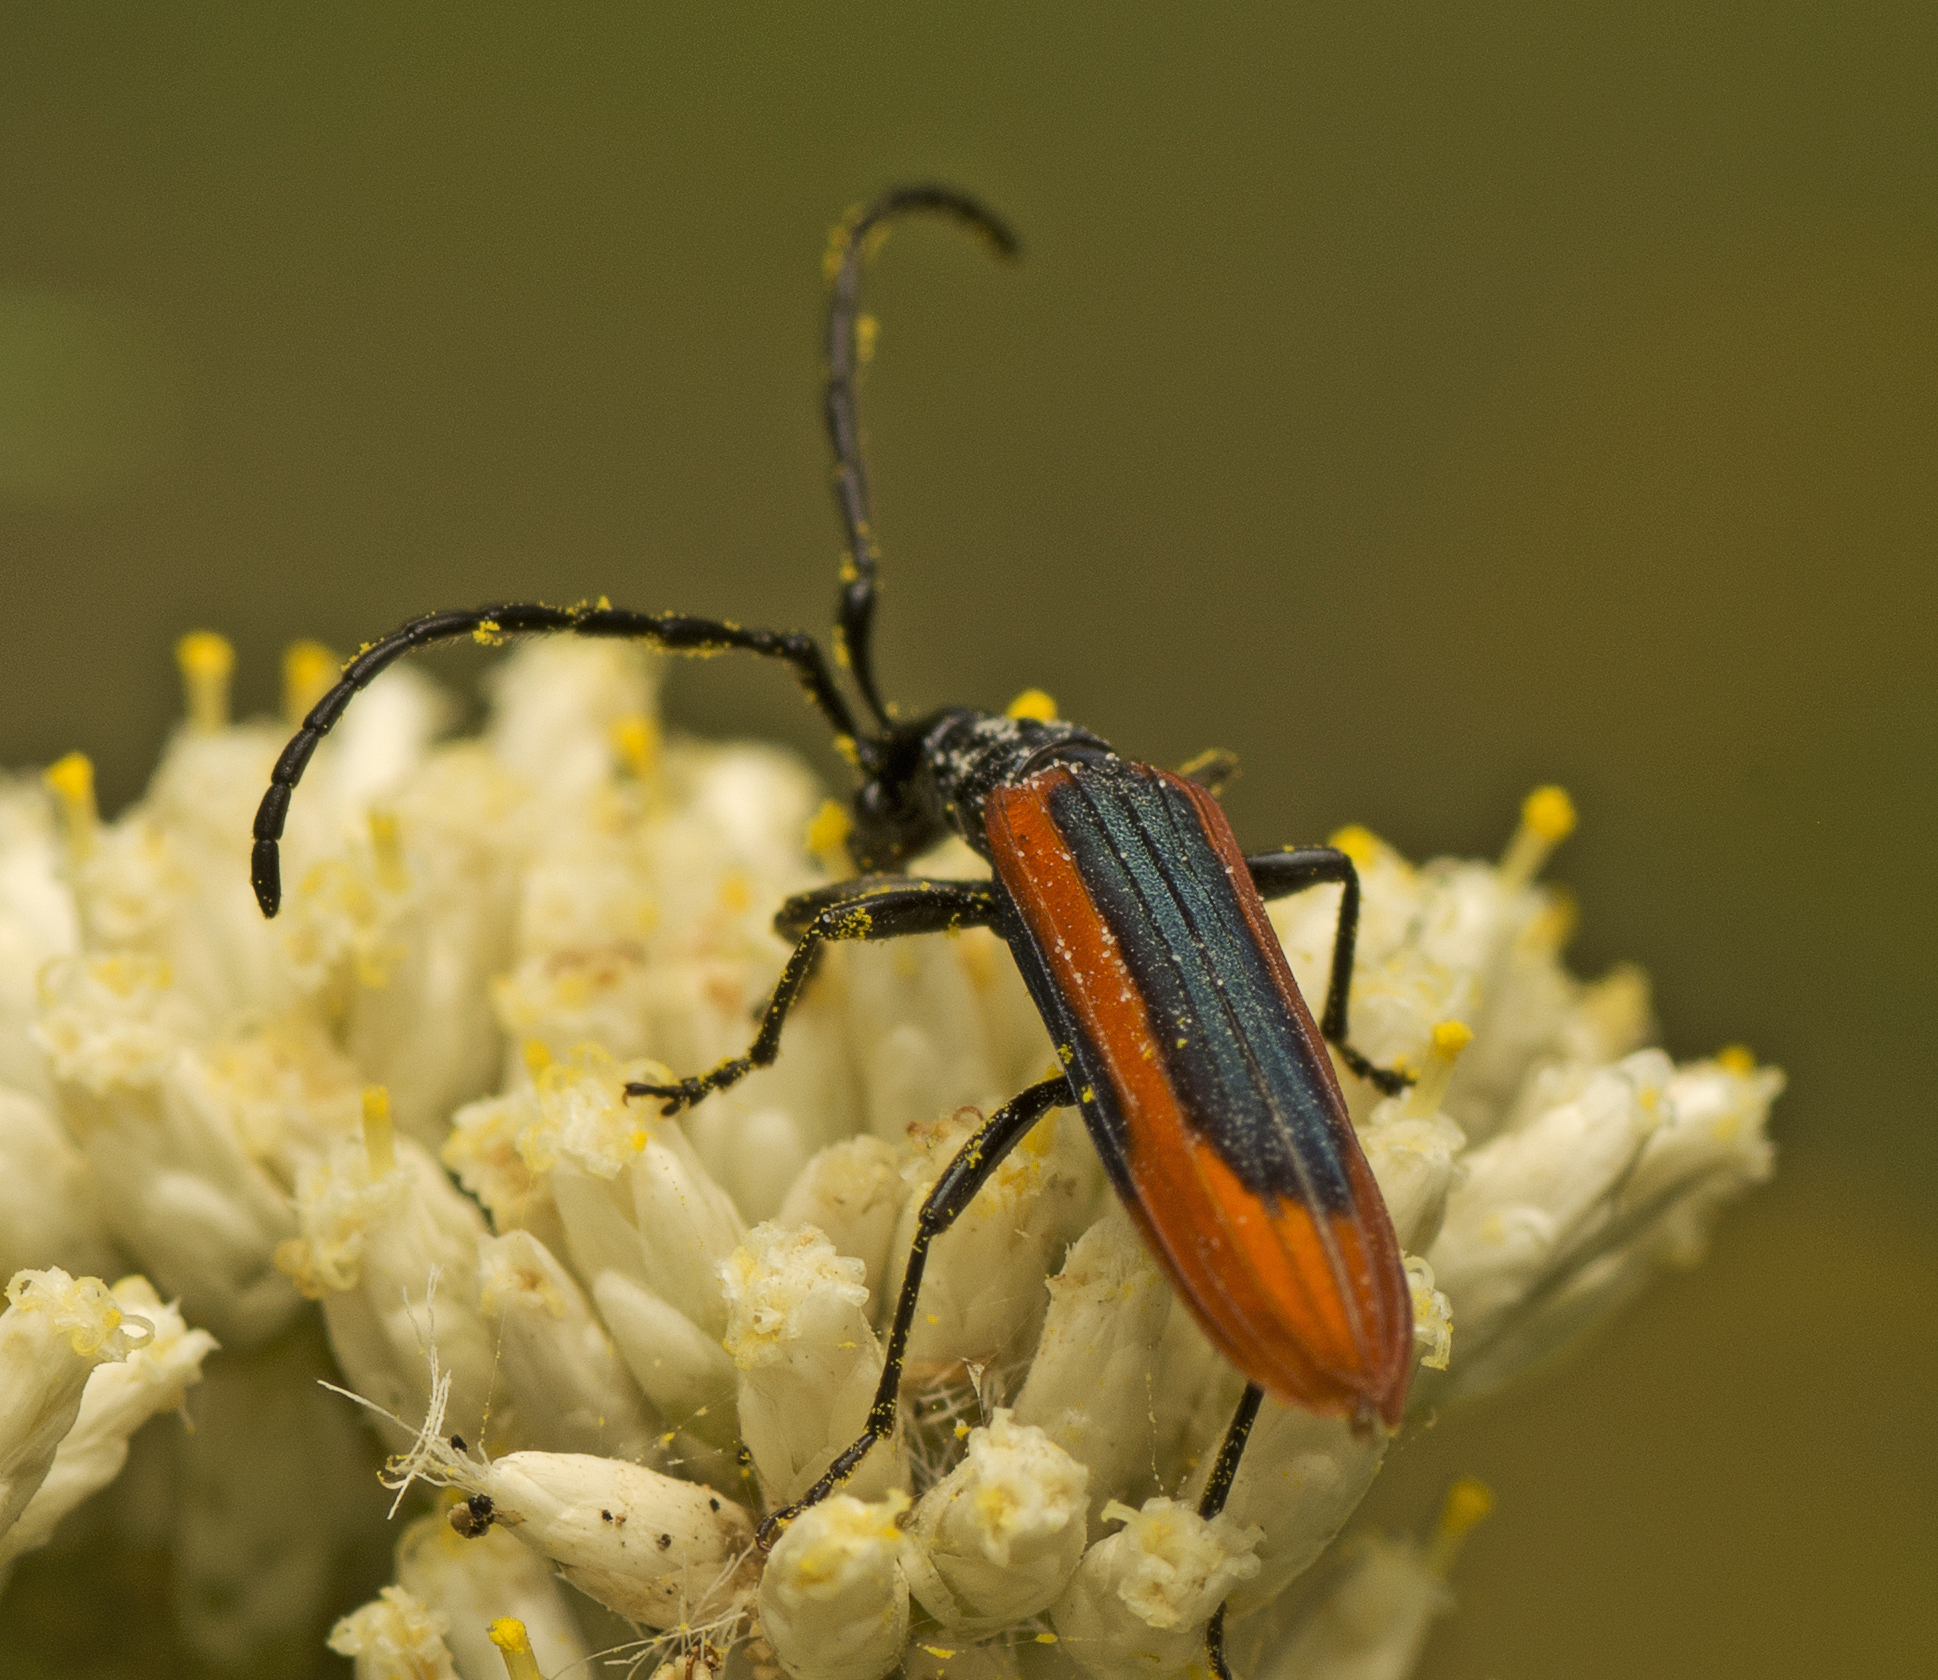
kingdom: Animalia
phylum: Arthropoda
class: Insecta
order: Coleoptera
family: Cerambycidae
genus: Stenoderus
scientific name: Stenoderus suturalis
